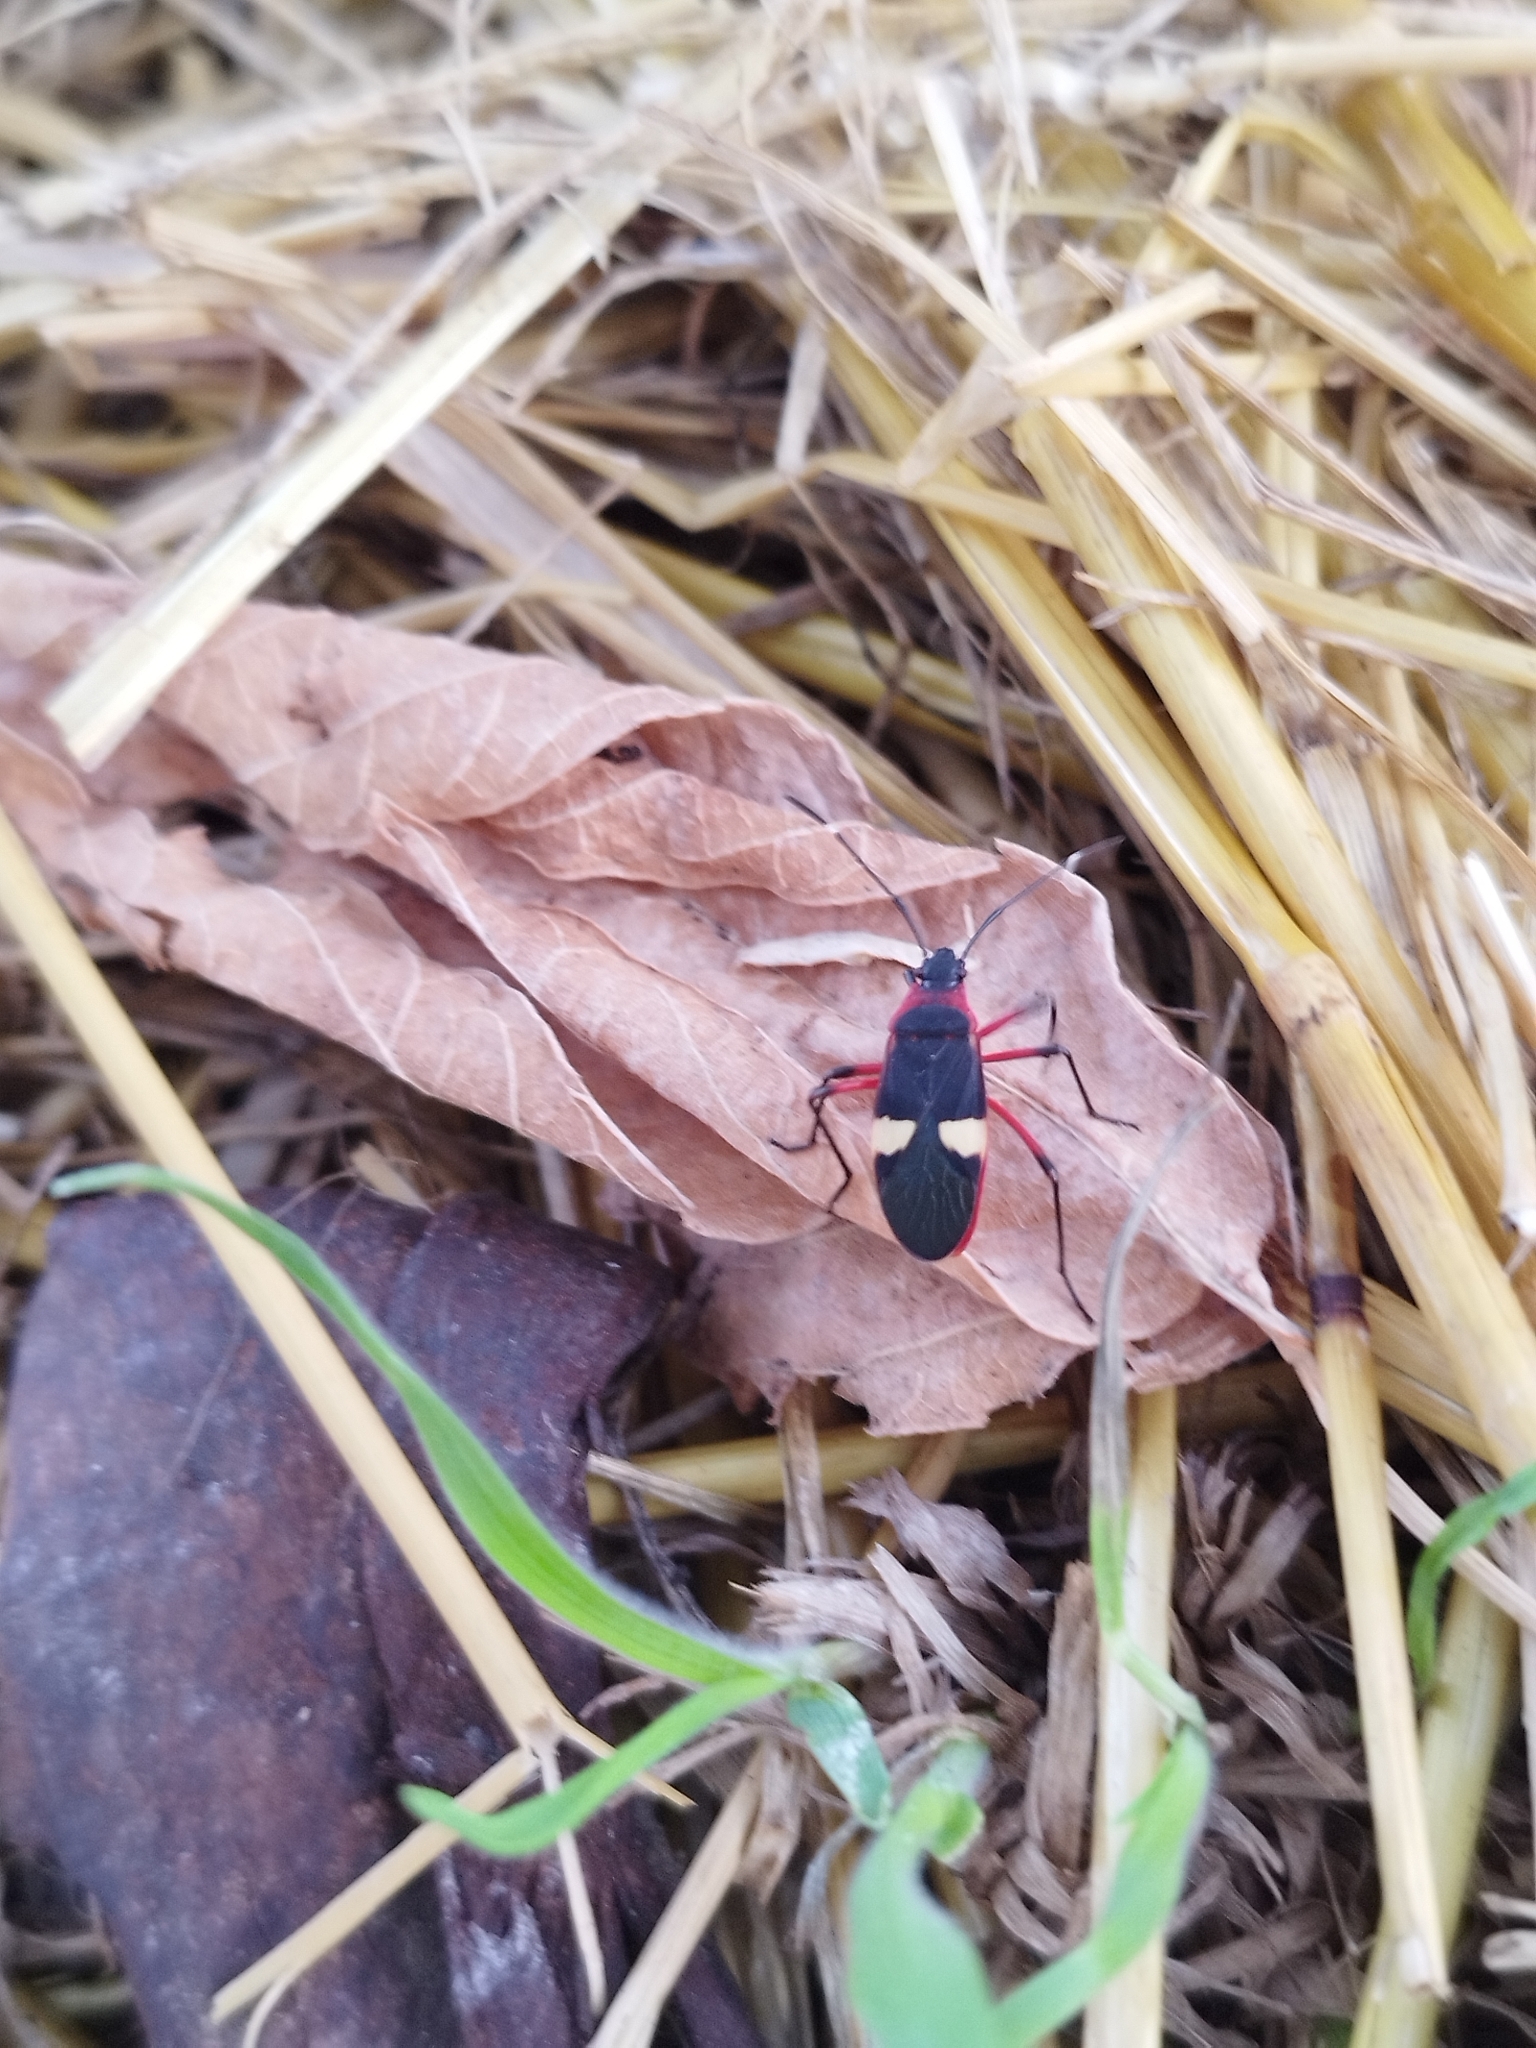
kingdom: Animalia
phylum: Arthropoda
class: Insecta
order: Hemiptera
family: Pyrrhocoridae
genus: Dysdercus
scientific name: Dysdercus albofasciatus
